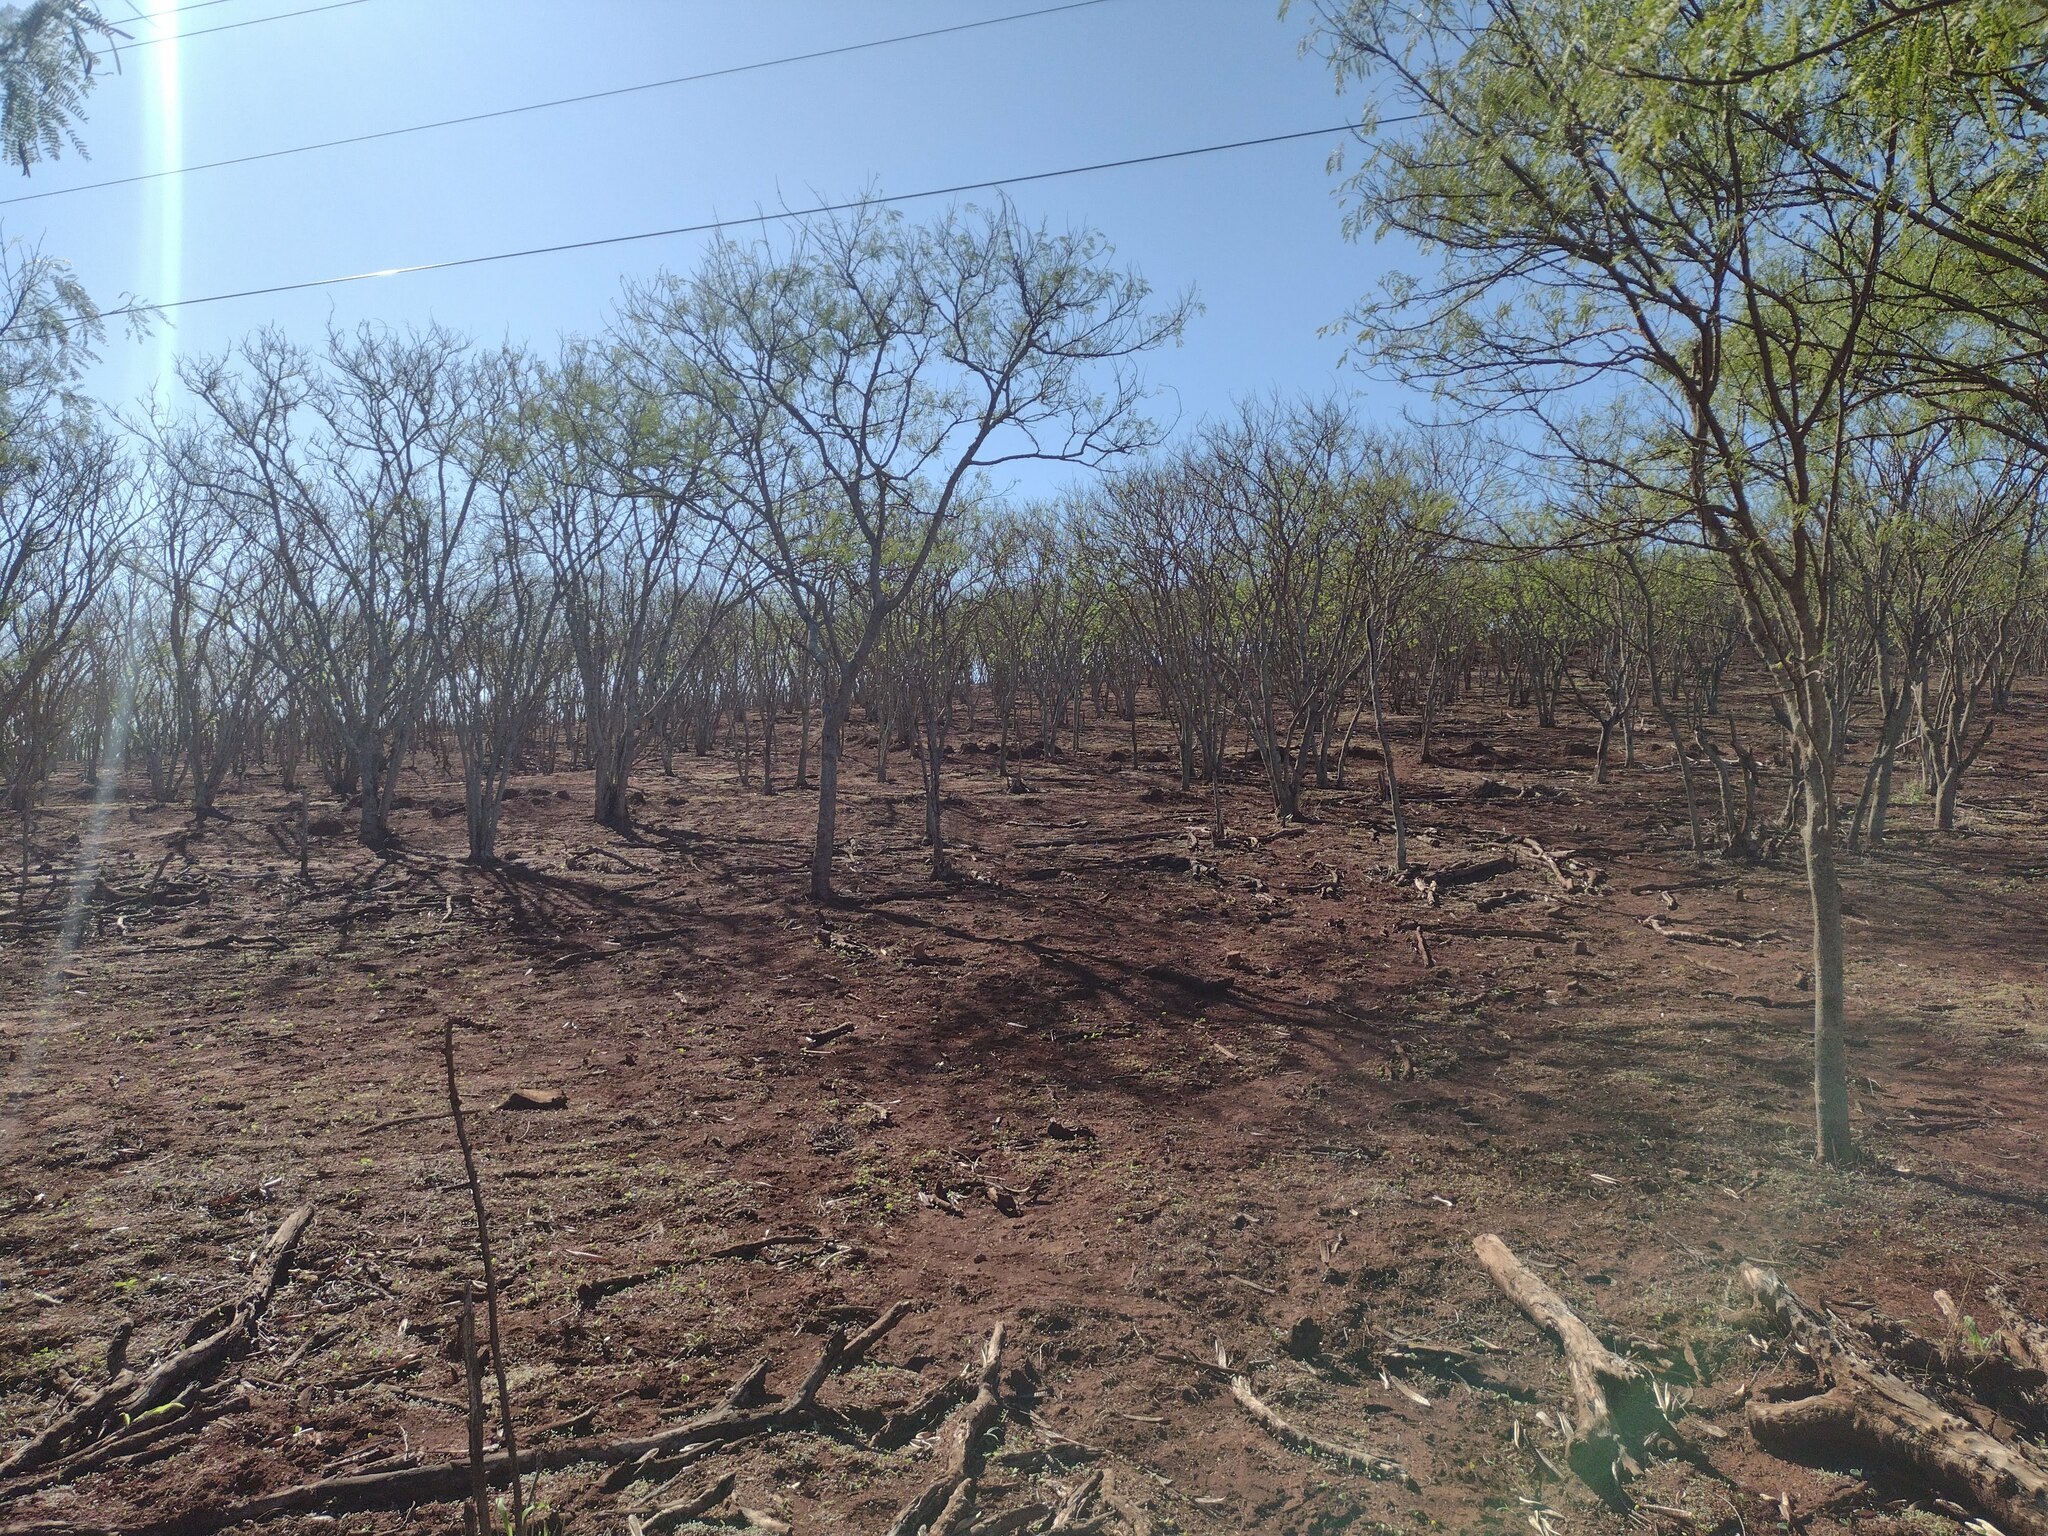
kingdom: Plantae
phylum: Tracheophyta
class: Magnoliopsida
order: Fabales
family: Fabaceae
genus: Leucaena
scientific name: Leucaena leucocephala
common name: White leadtree
